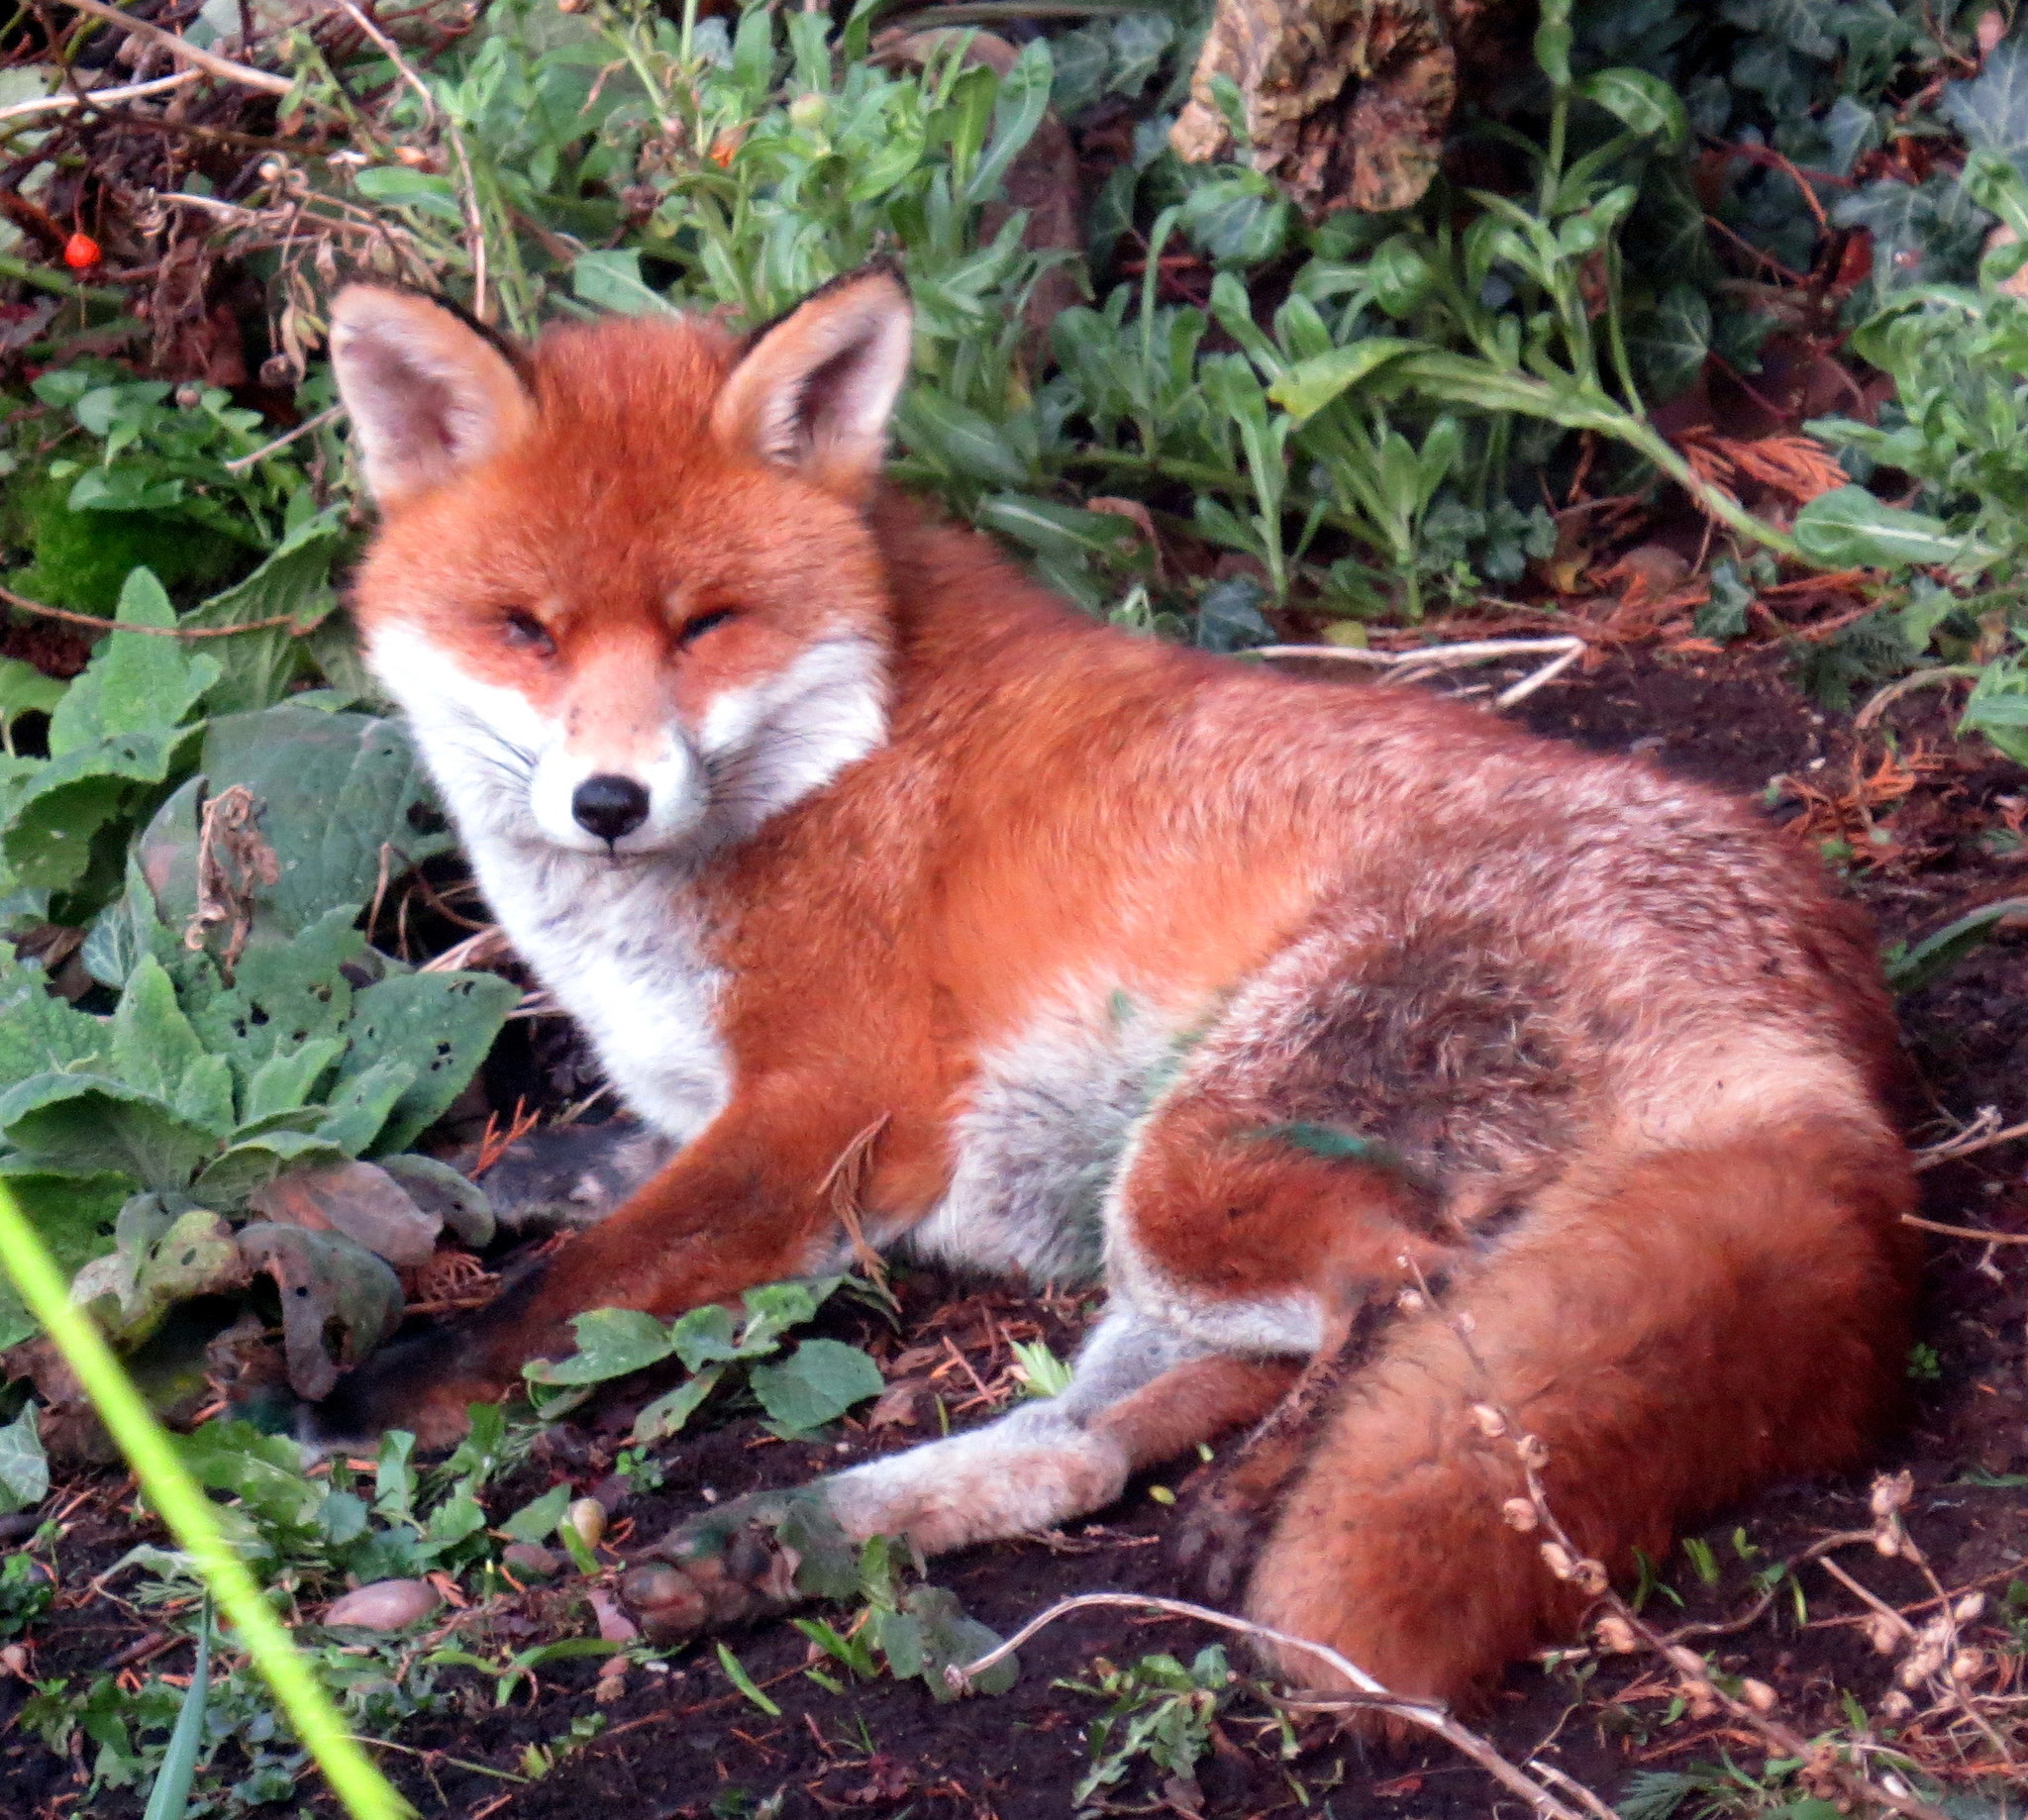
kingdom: Animalia
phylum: Chordata
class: Mammalia
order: Carnivora
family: Canidae
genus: Vulpes
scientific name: Vulpes vulpes
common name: Red fox
